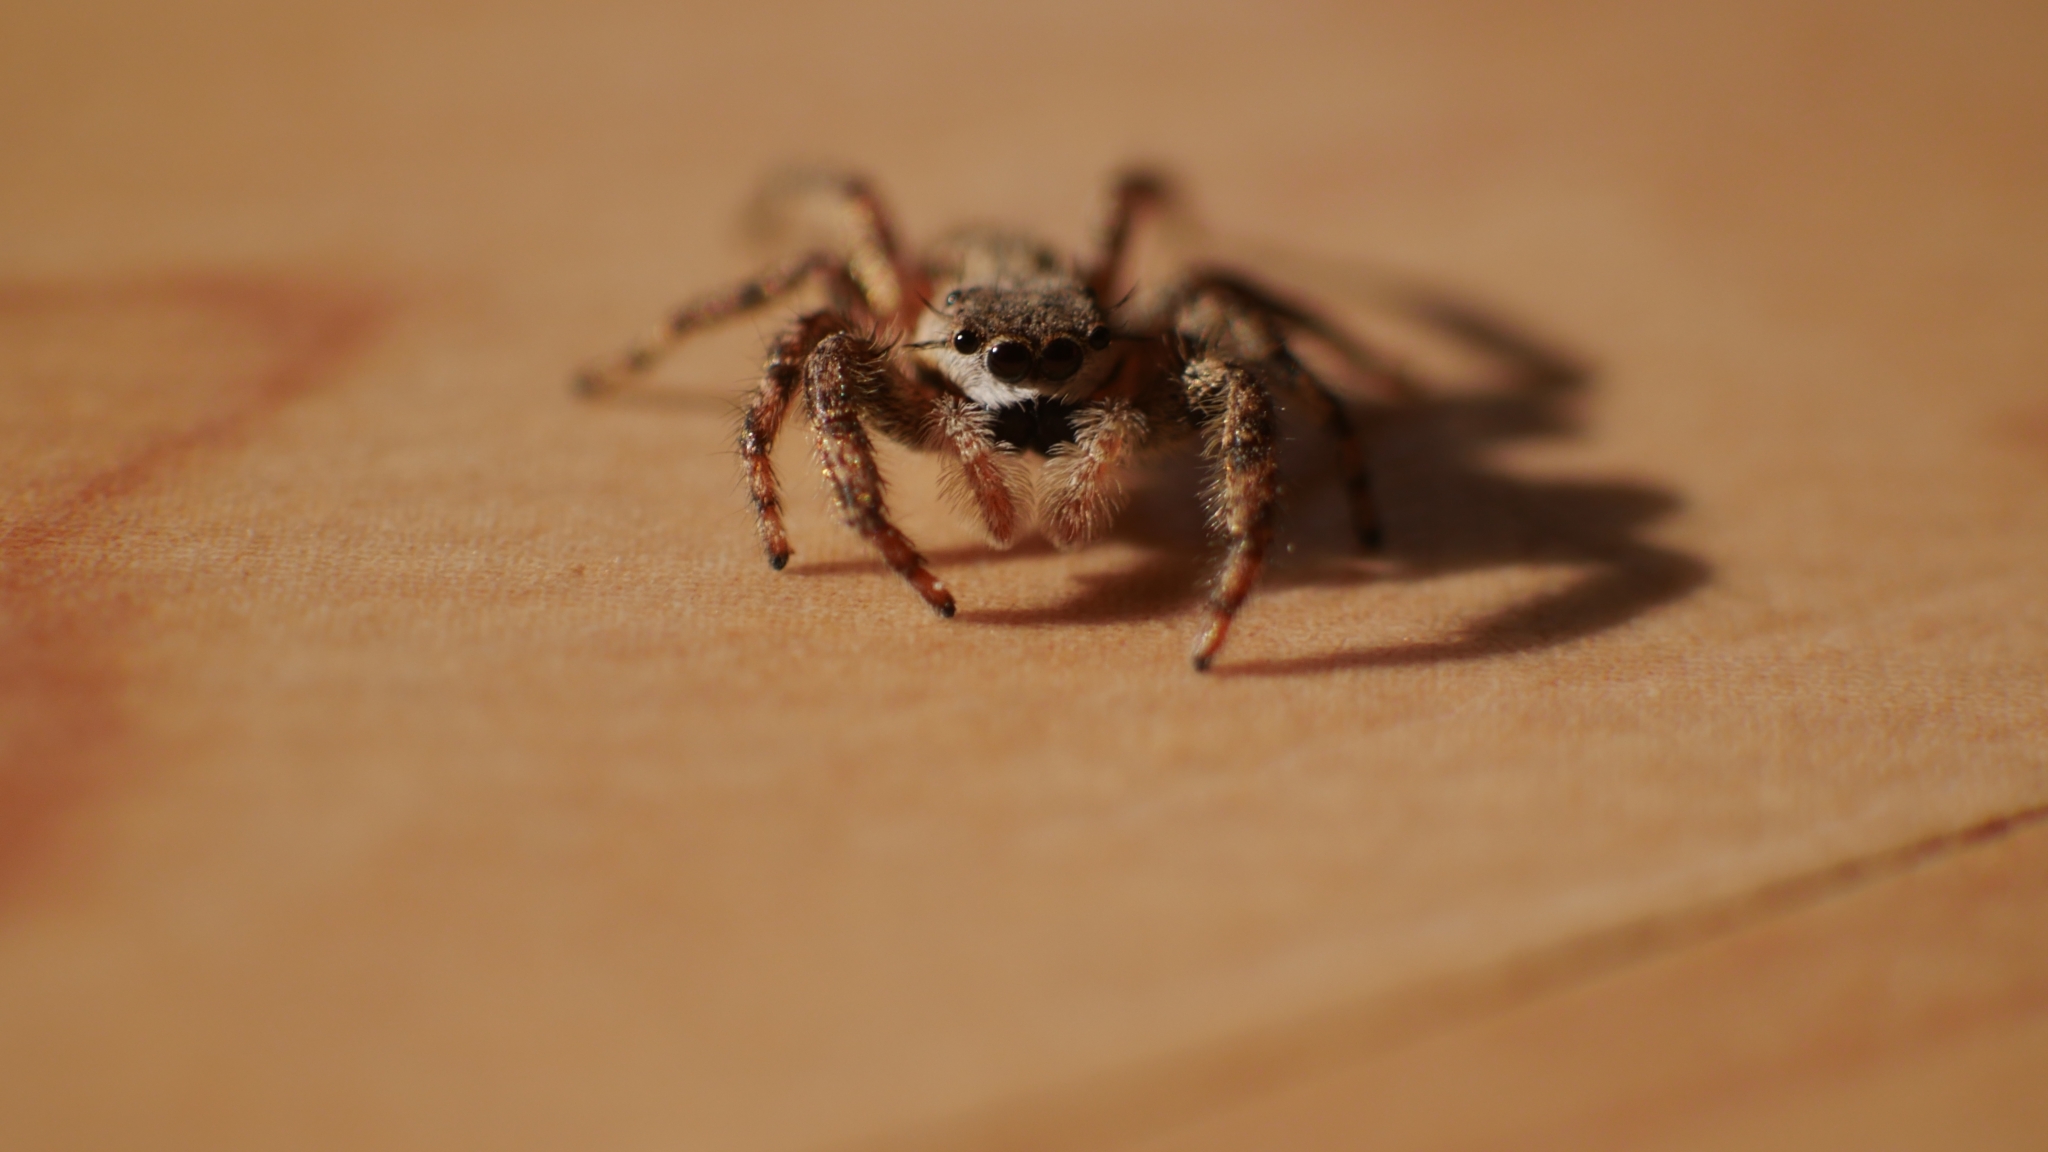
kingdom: Animalia
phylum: Arthropoda
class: Arachnida
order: Araneae
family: Salticidae
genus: Platycryptus
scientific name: Platycryptus undatus
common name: Tan jumping spider
